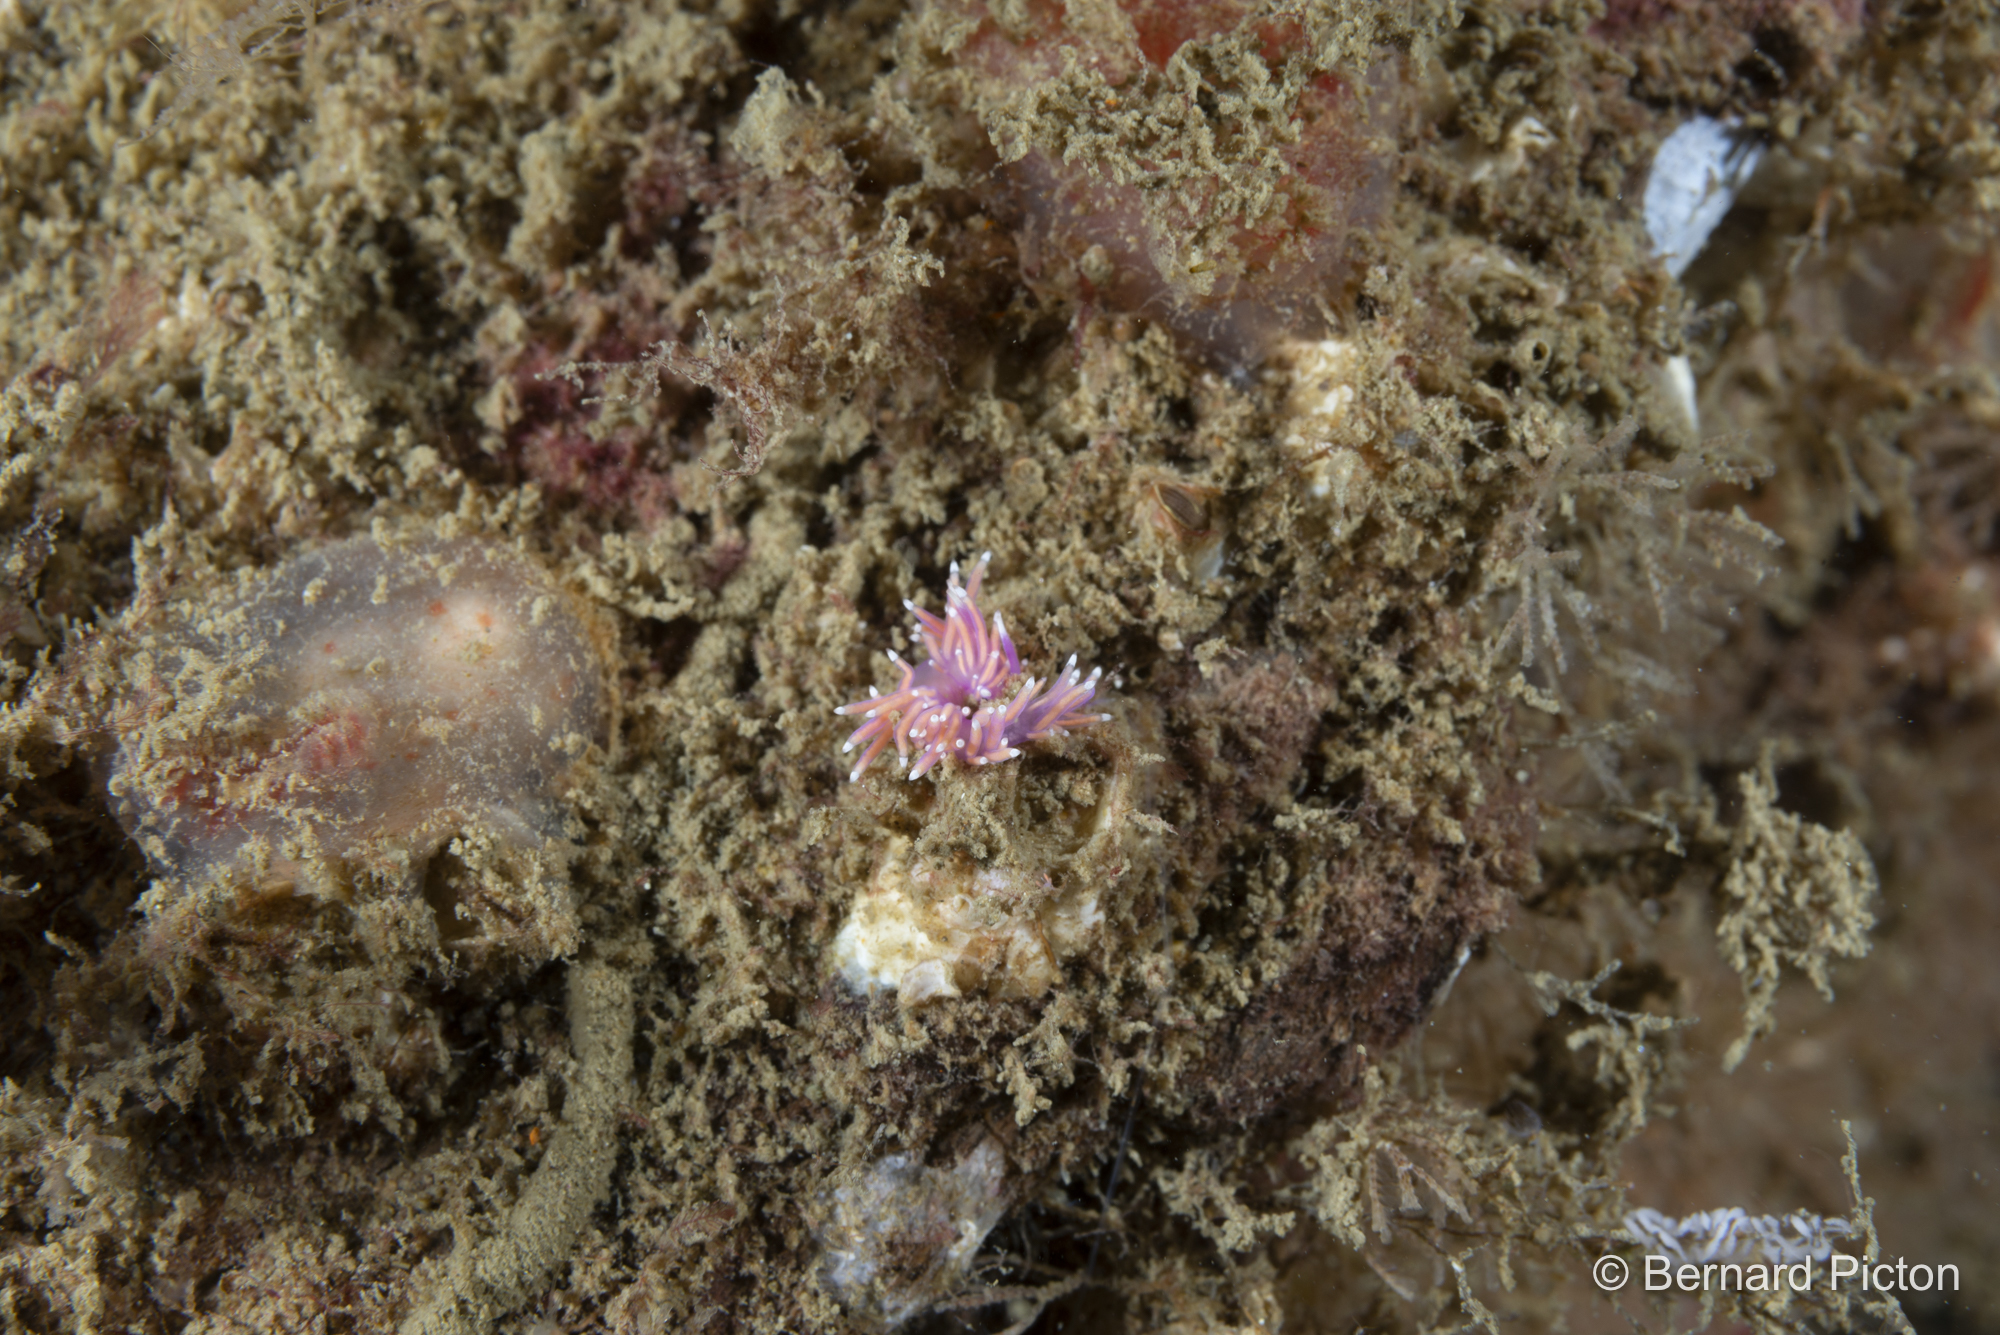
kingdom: Animalia
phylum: Mollusca
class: Gastropoda
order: Nudibranchia
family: Flabellinidae
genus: Edmundsella
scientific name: Edmundsella pedata
